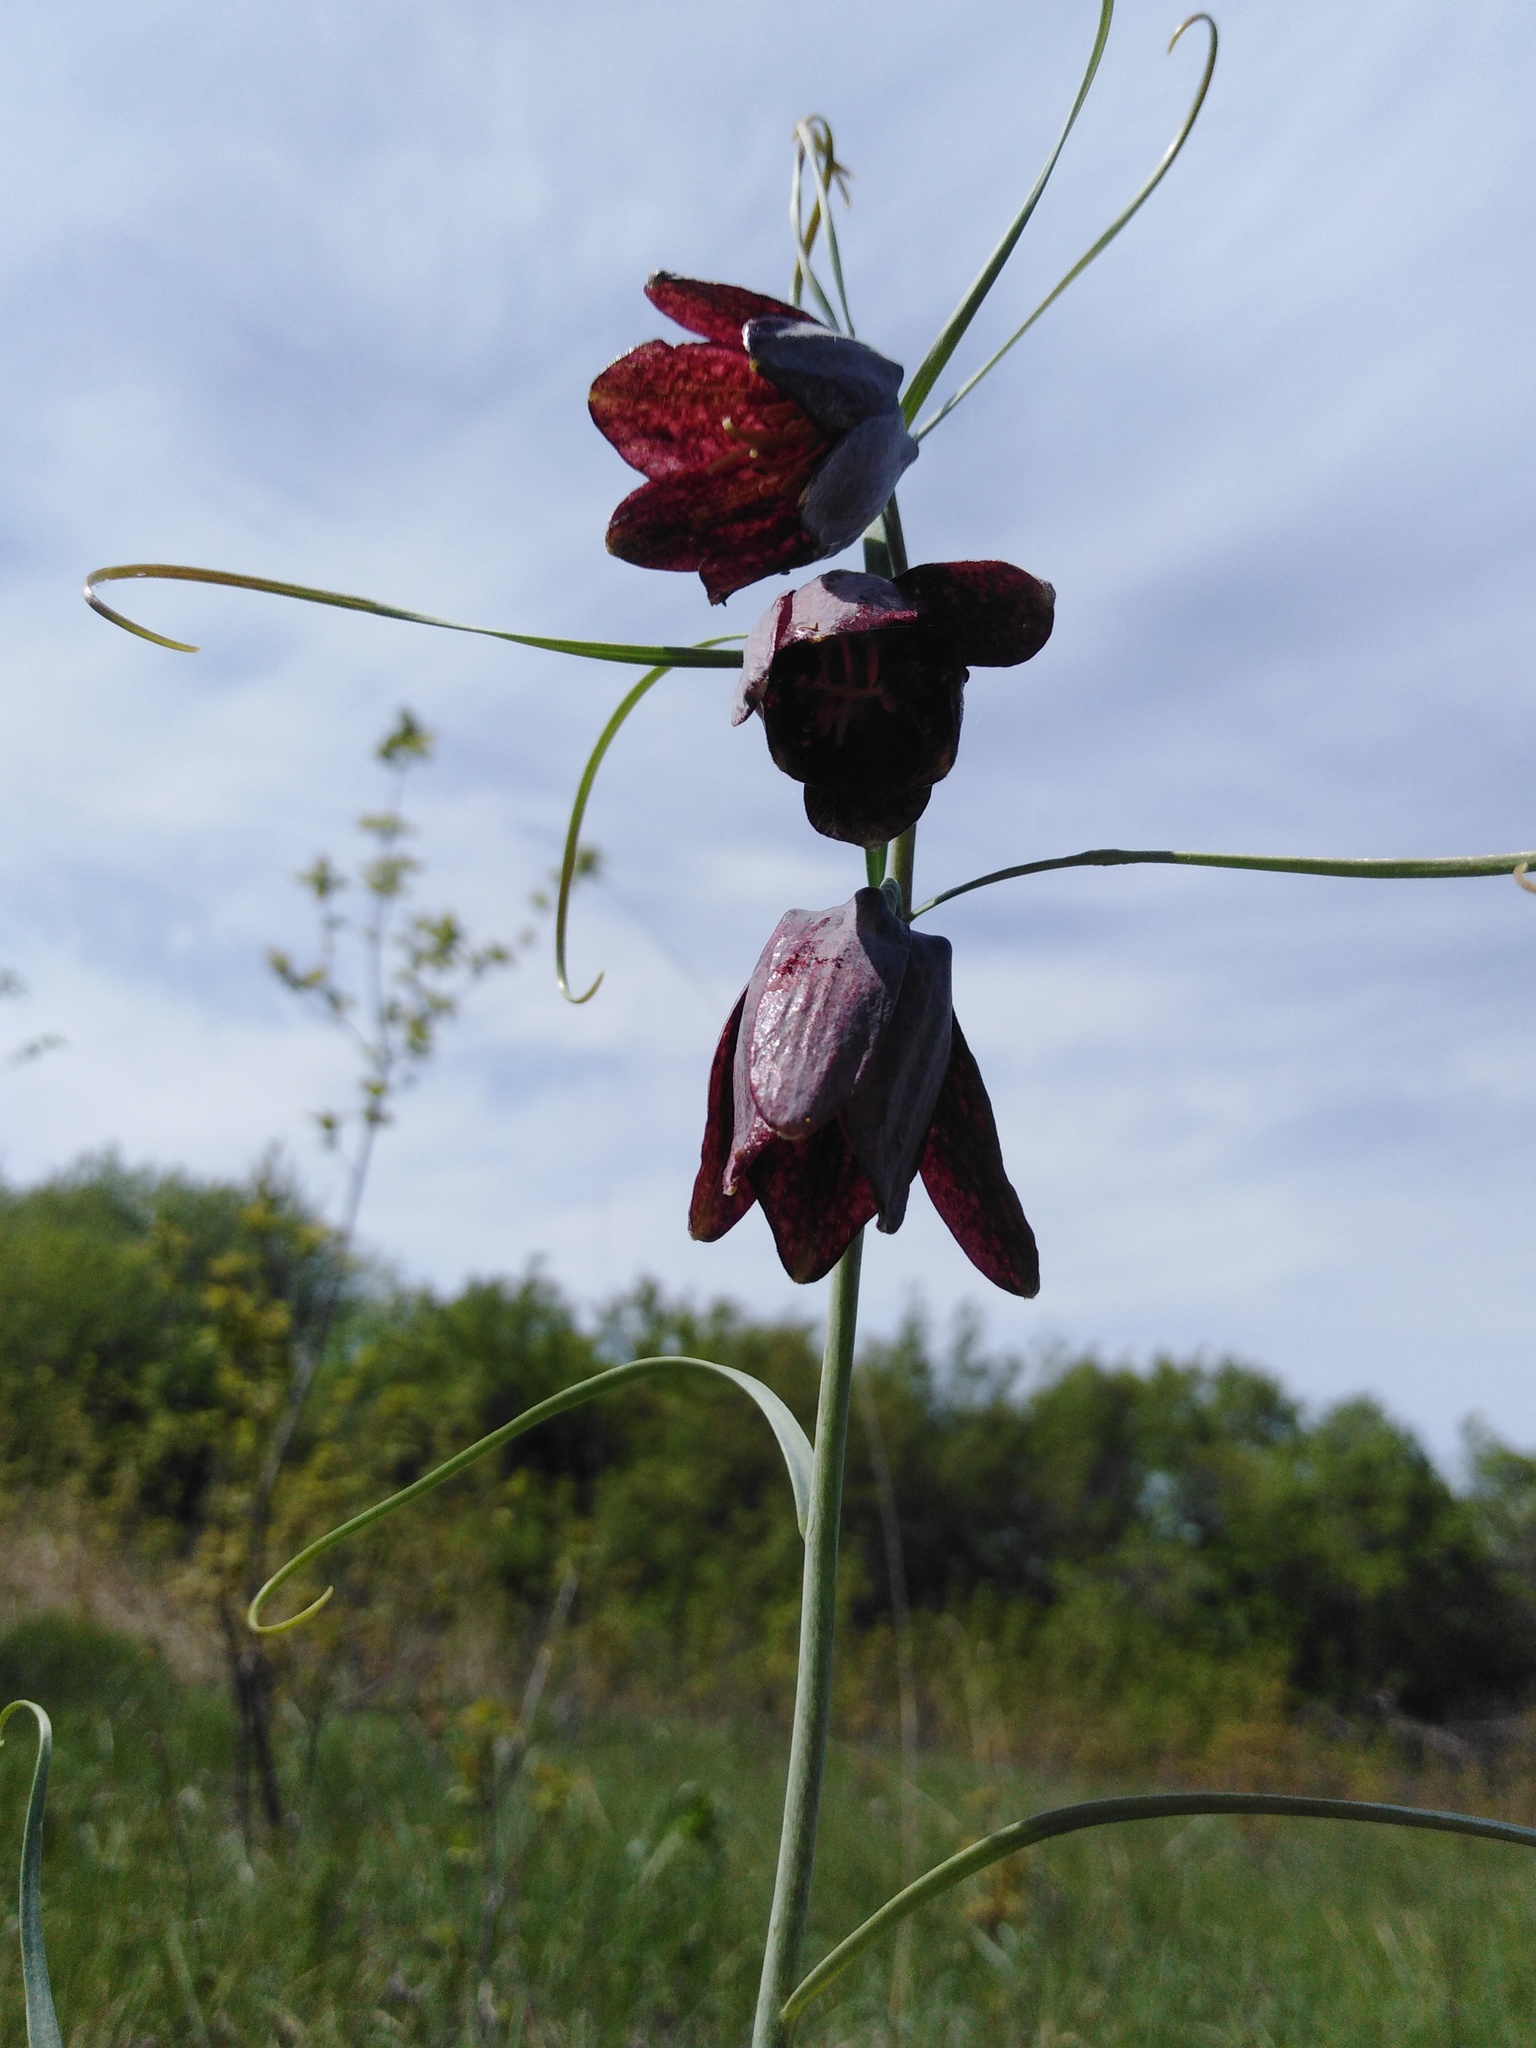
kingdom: Plantae
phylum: Tracheophyta
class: Liliopsida
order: Liliales
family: Liliaceae
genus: Fritillaria
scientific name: Fritillaria ruthenica
